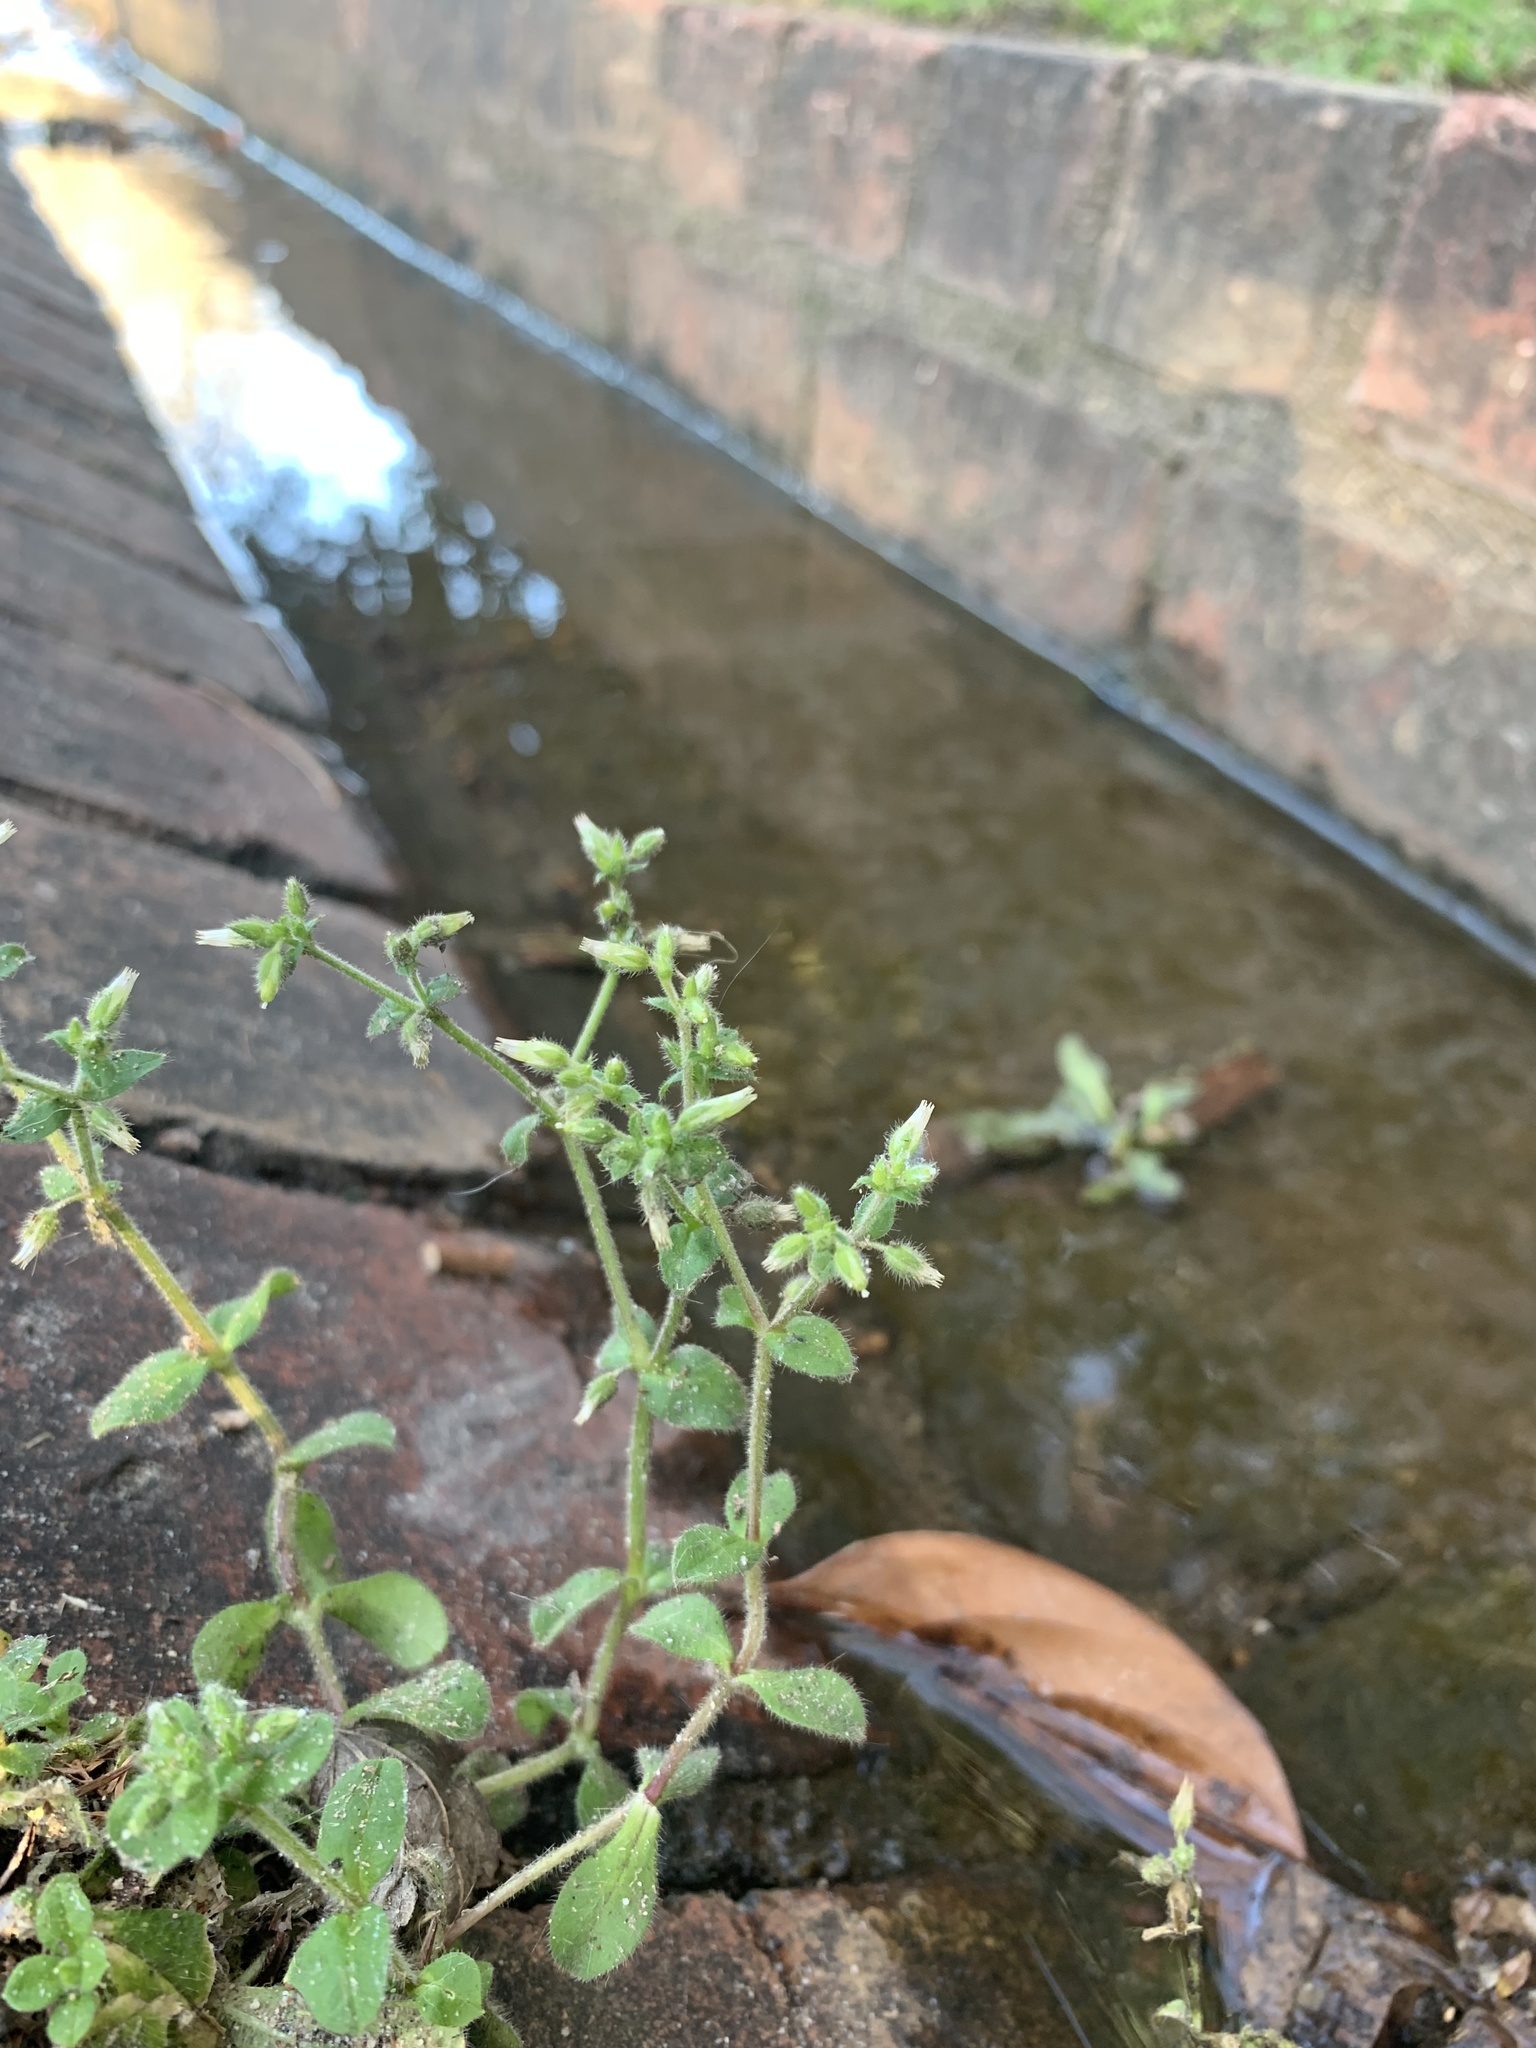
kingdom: Plantae
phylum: Tracheophyta
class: Magnoliopsida
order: Caryophyllales
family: Caryophyllaceae
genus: Cerastium
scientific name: Cerastium glomeratum
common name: Sticky chickweed
